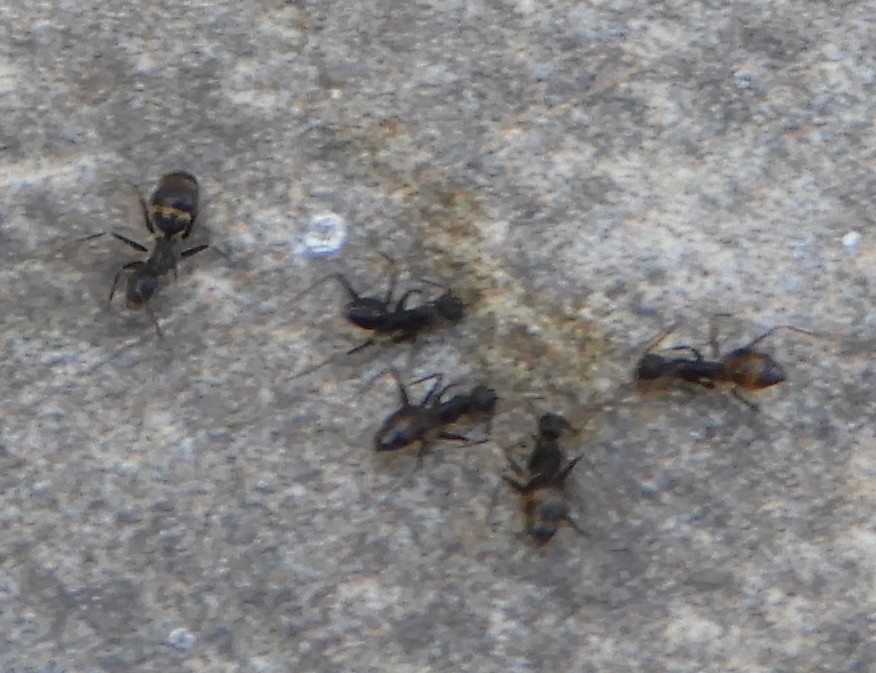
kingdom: Animalia
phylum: Arthropoda
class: Insecta
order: Hymenoptera
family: Formicidae
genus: Paratrechina
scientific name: Paratrechina longicornis
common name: Longhorned crazy ant
